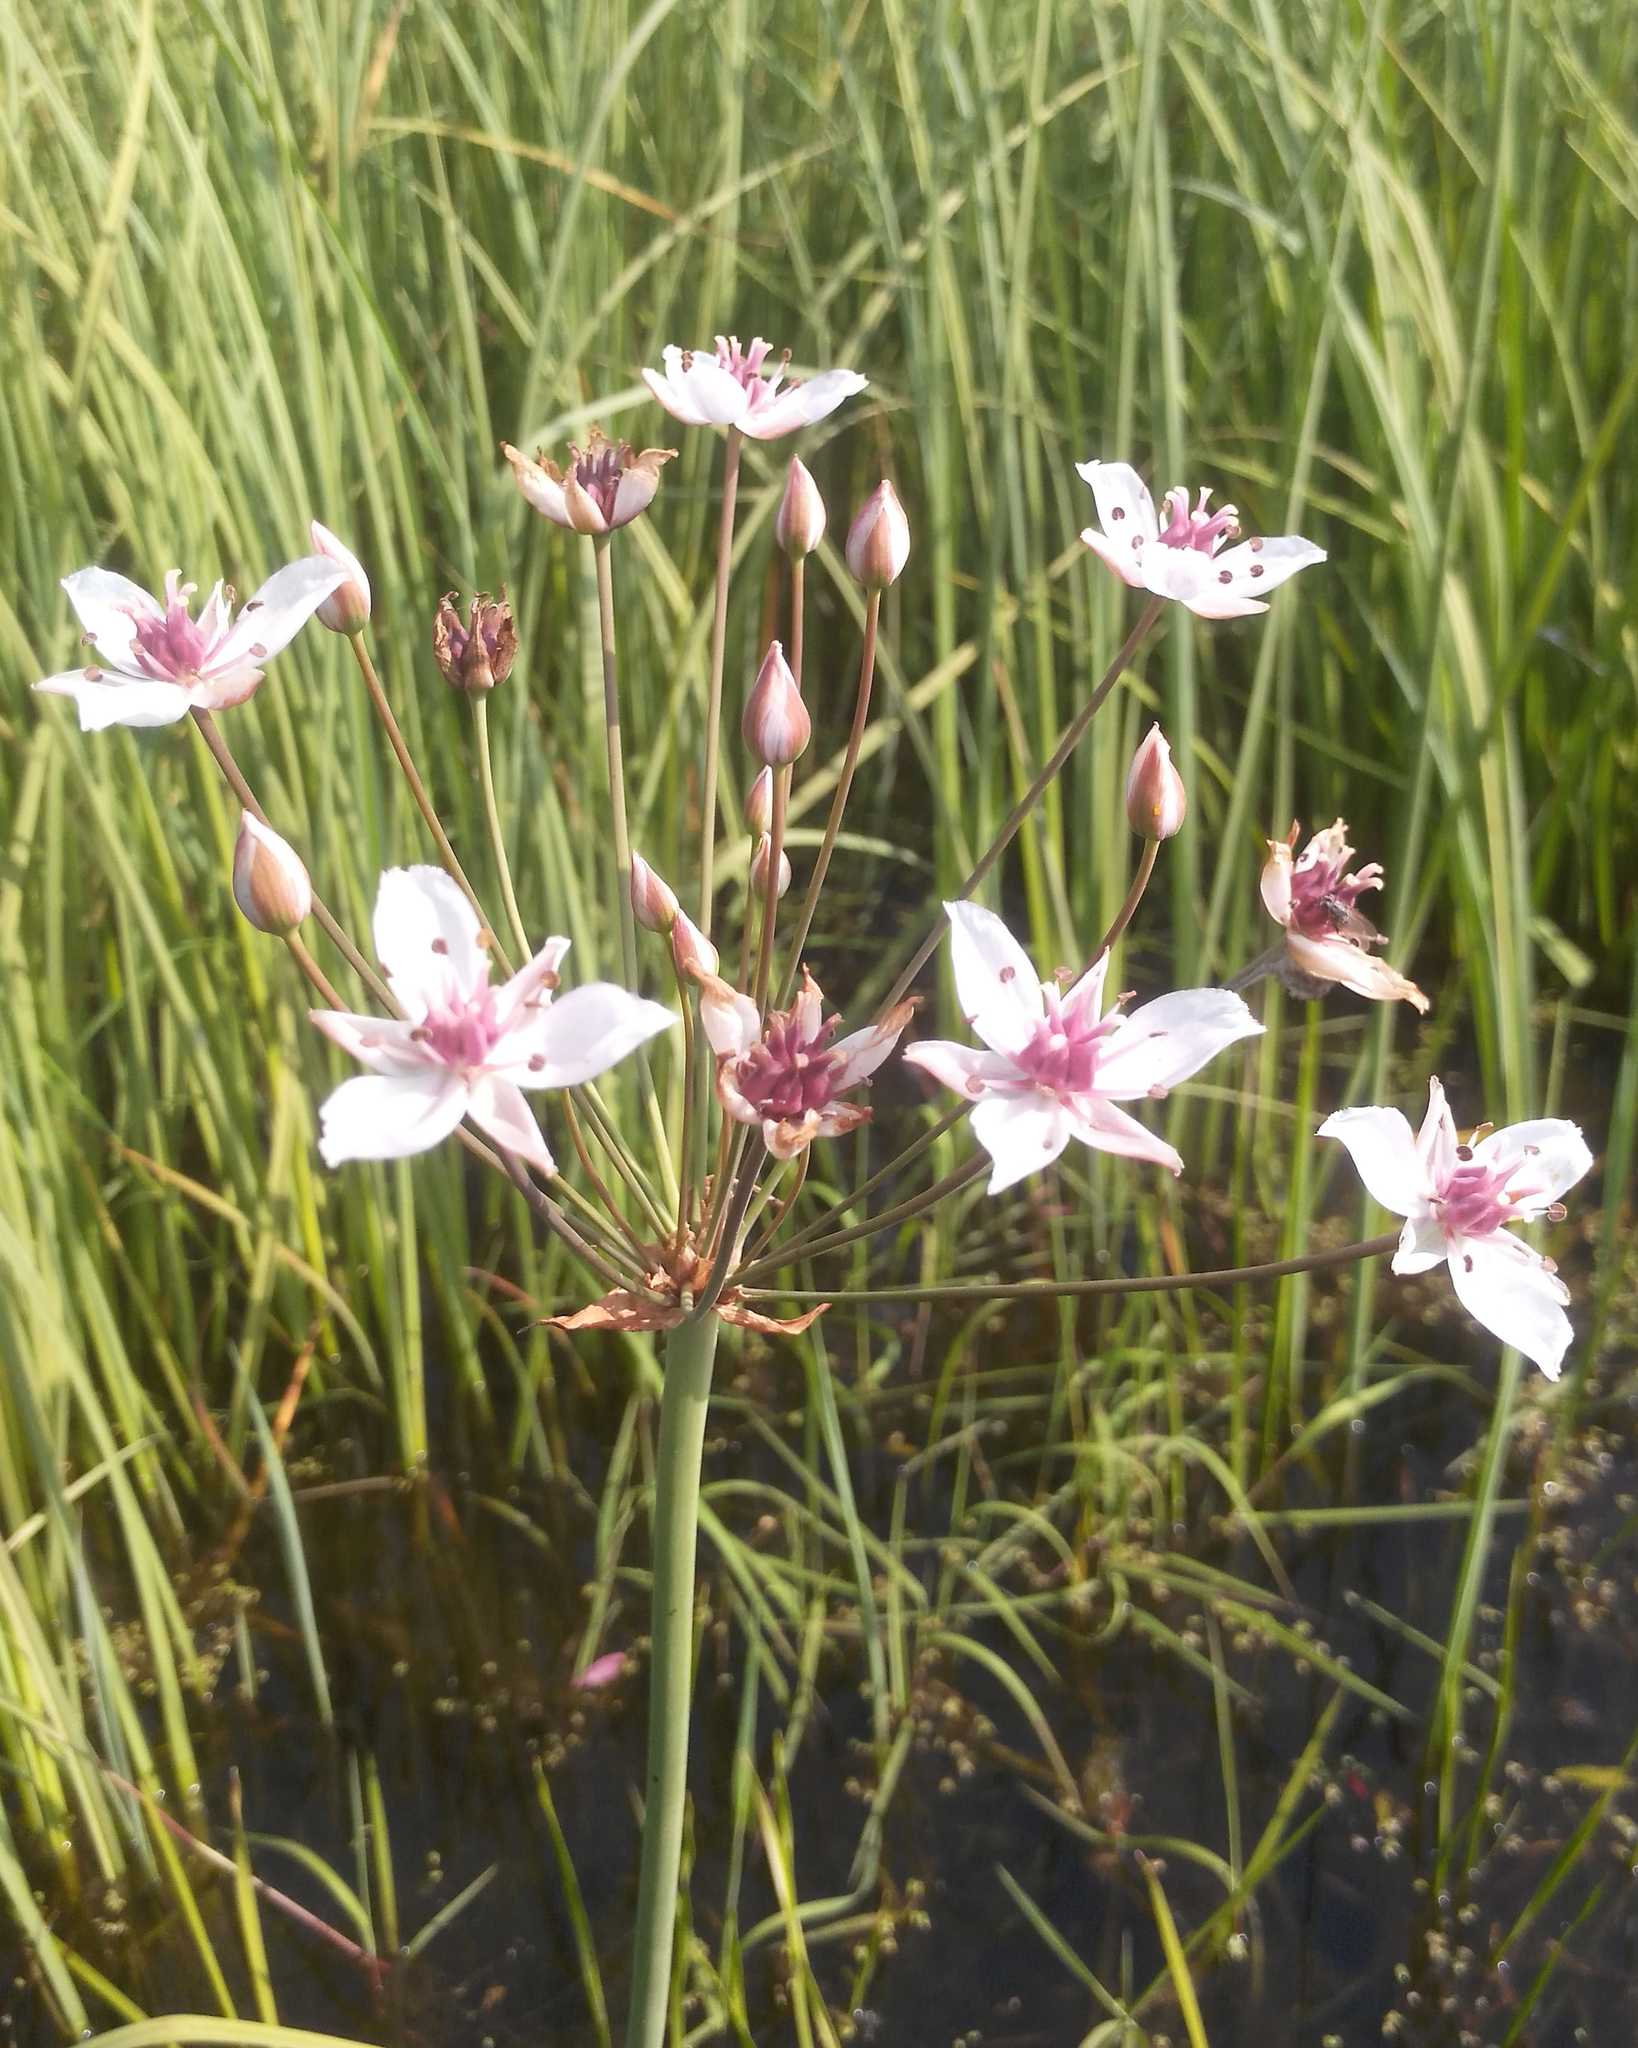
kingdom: Plantae
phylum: Tracheophyta
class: Liliopsida
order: Alismatales
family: Butomaceae
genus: Butomus
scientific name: Butomus umbellatus
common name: Flowering-rush
